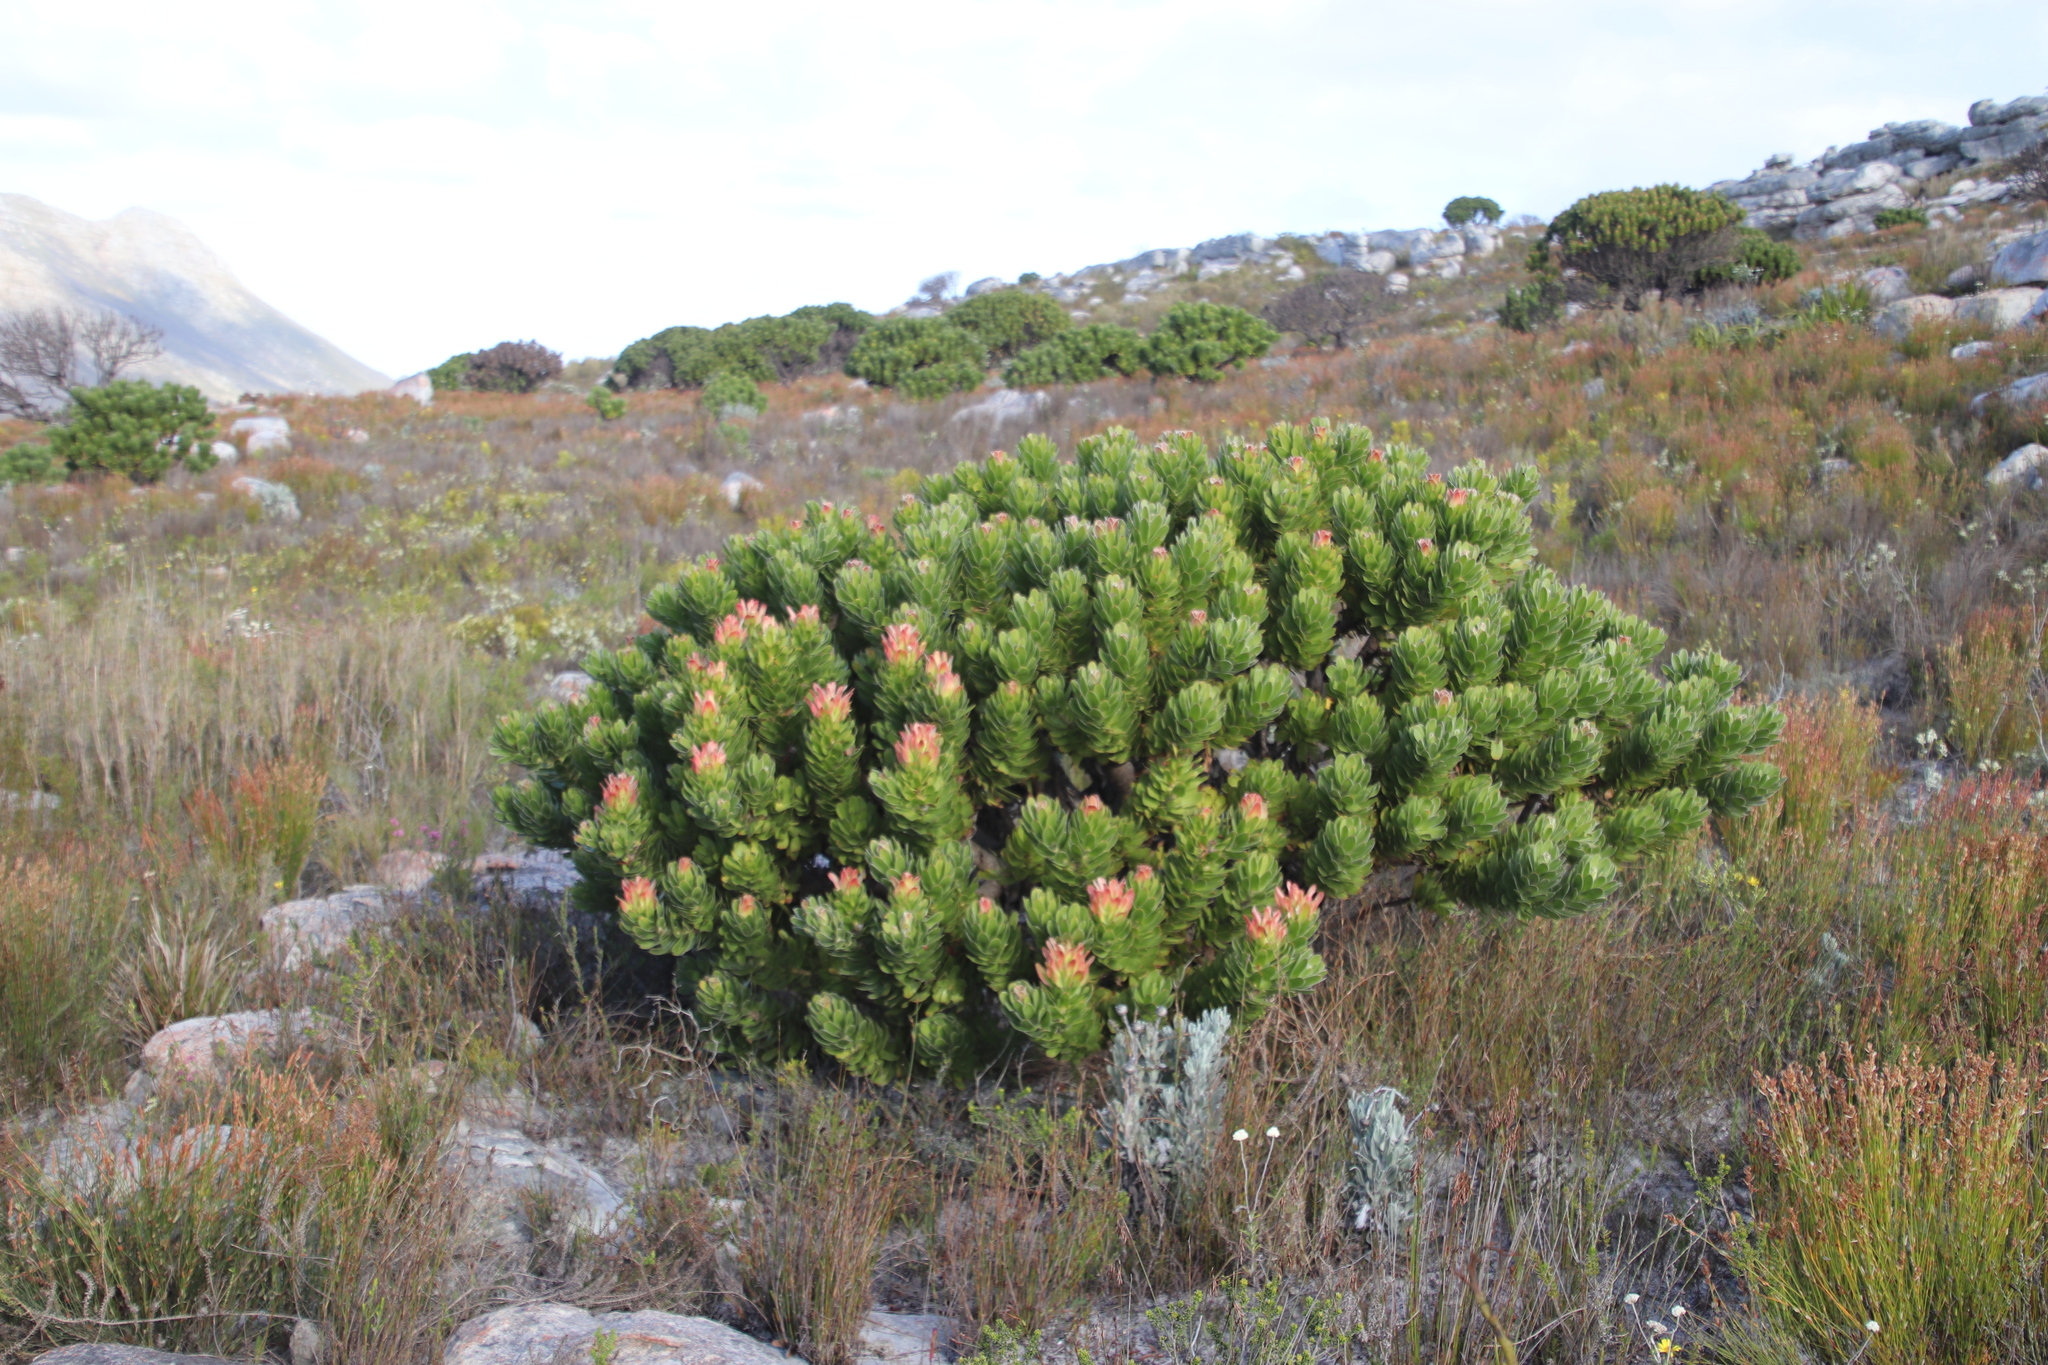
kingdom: Plantae
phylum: Tracheophyta
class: Magnoliopsida
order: Proteales
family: Proteaceae
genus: Mimetes
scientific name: Mimetes fimbriifolius
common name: Fringed bottlebrush
